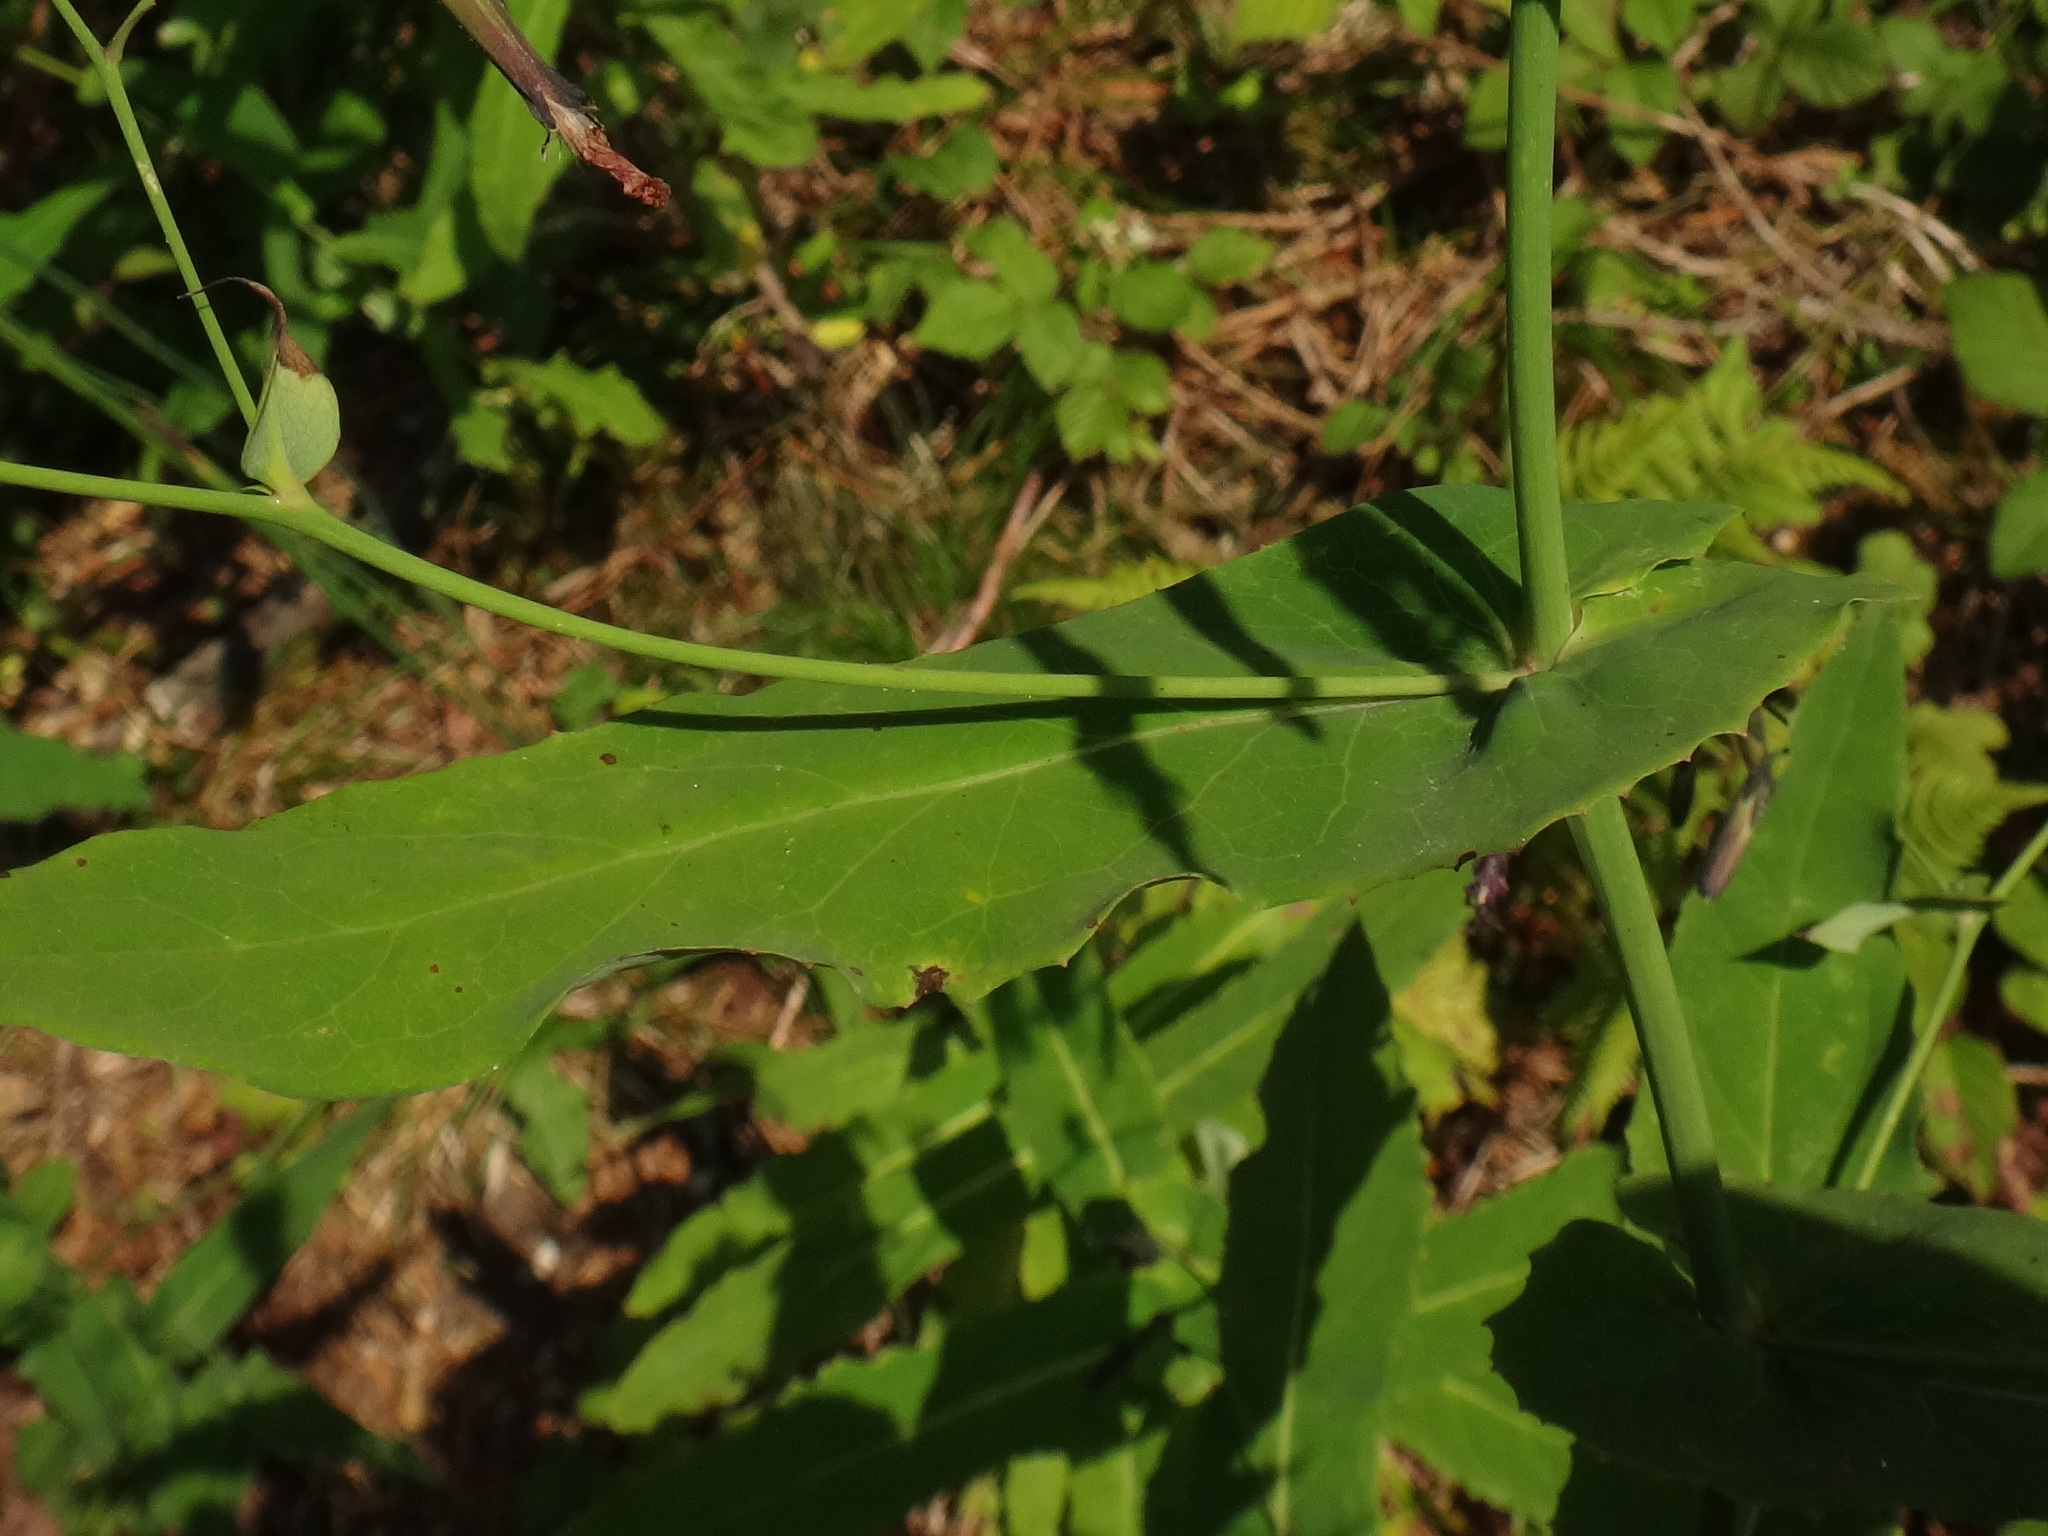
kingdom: Plantae
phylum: Tracheophyta
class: Magnoliopsida
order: Asterales
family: Asteraceae
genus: Prenanthes
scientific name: Prenanthes purpurea
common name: Purple lettuce
